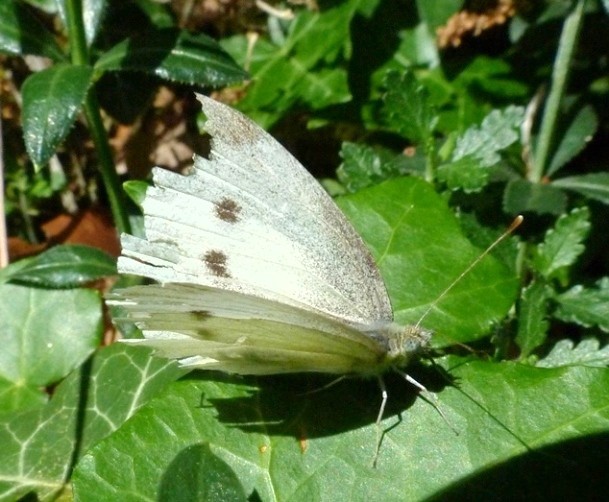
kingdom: Animalia
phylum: Arthropoda
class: Insecta
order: Lepidoptera
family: Pieridae
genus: Pieris
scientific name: Pieris rapae
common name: Small white
